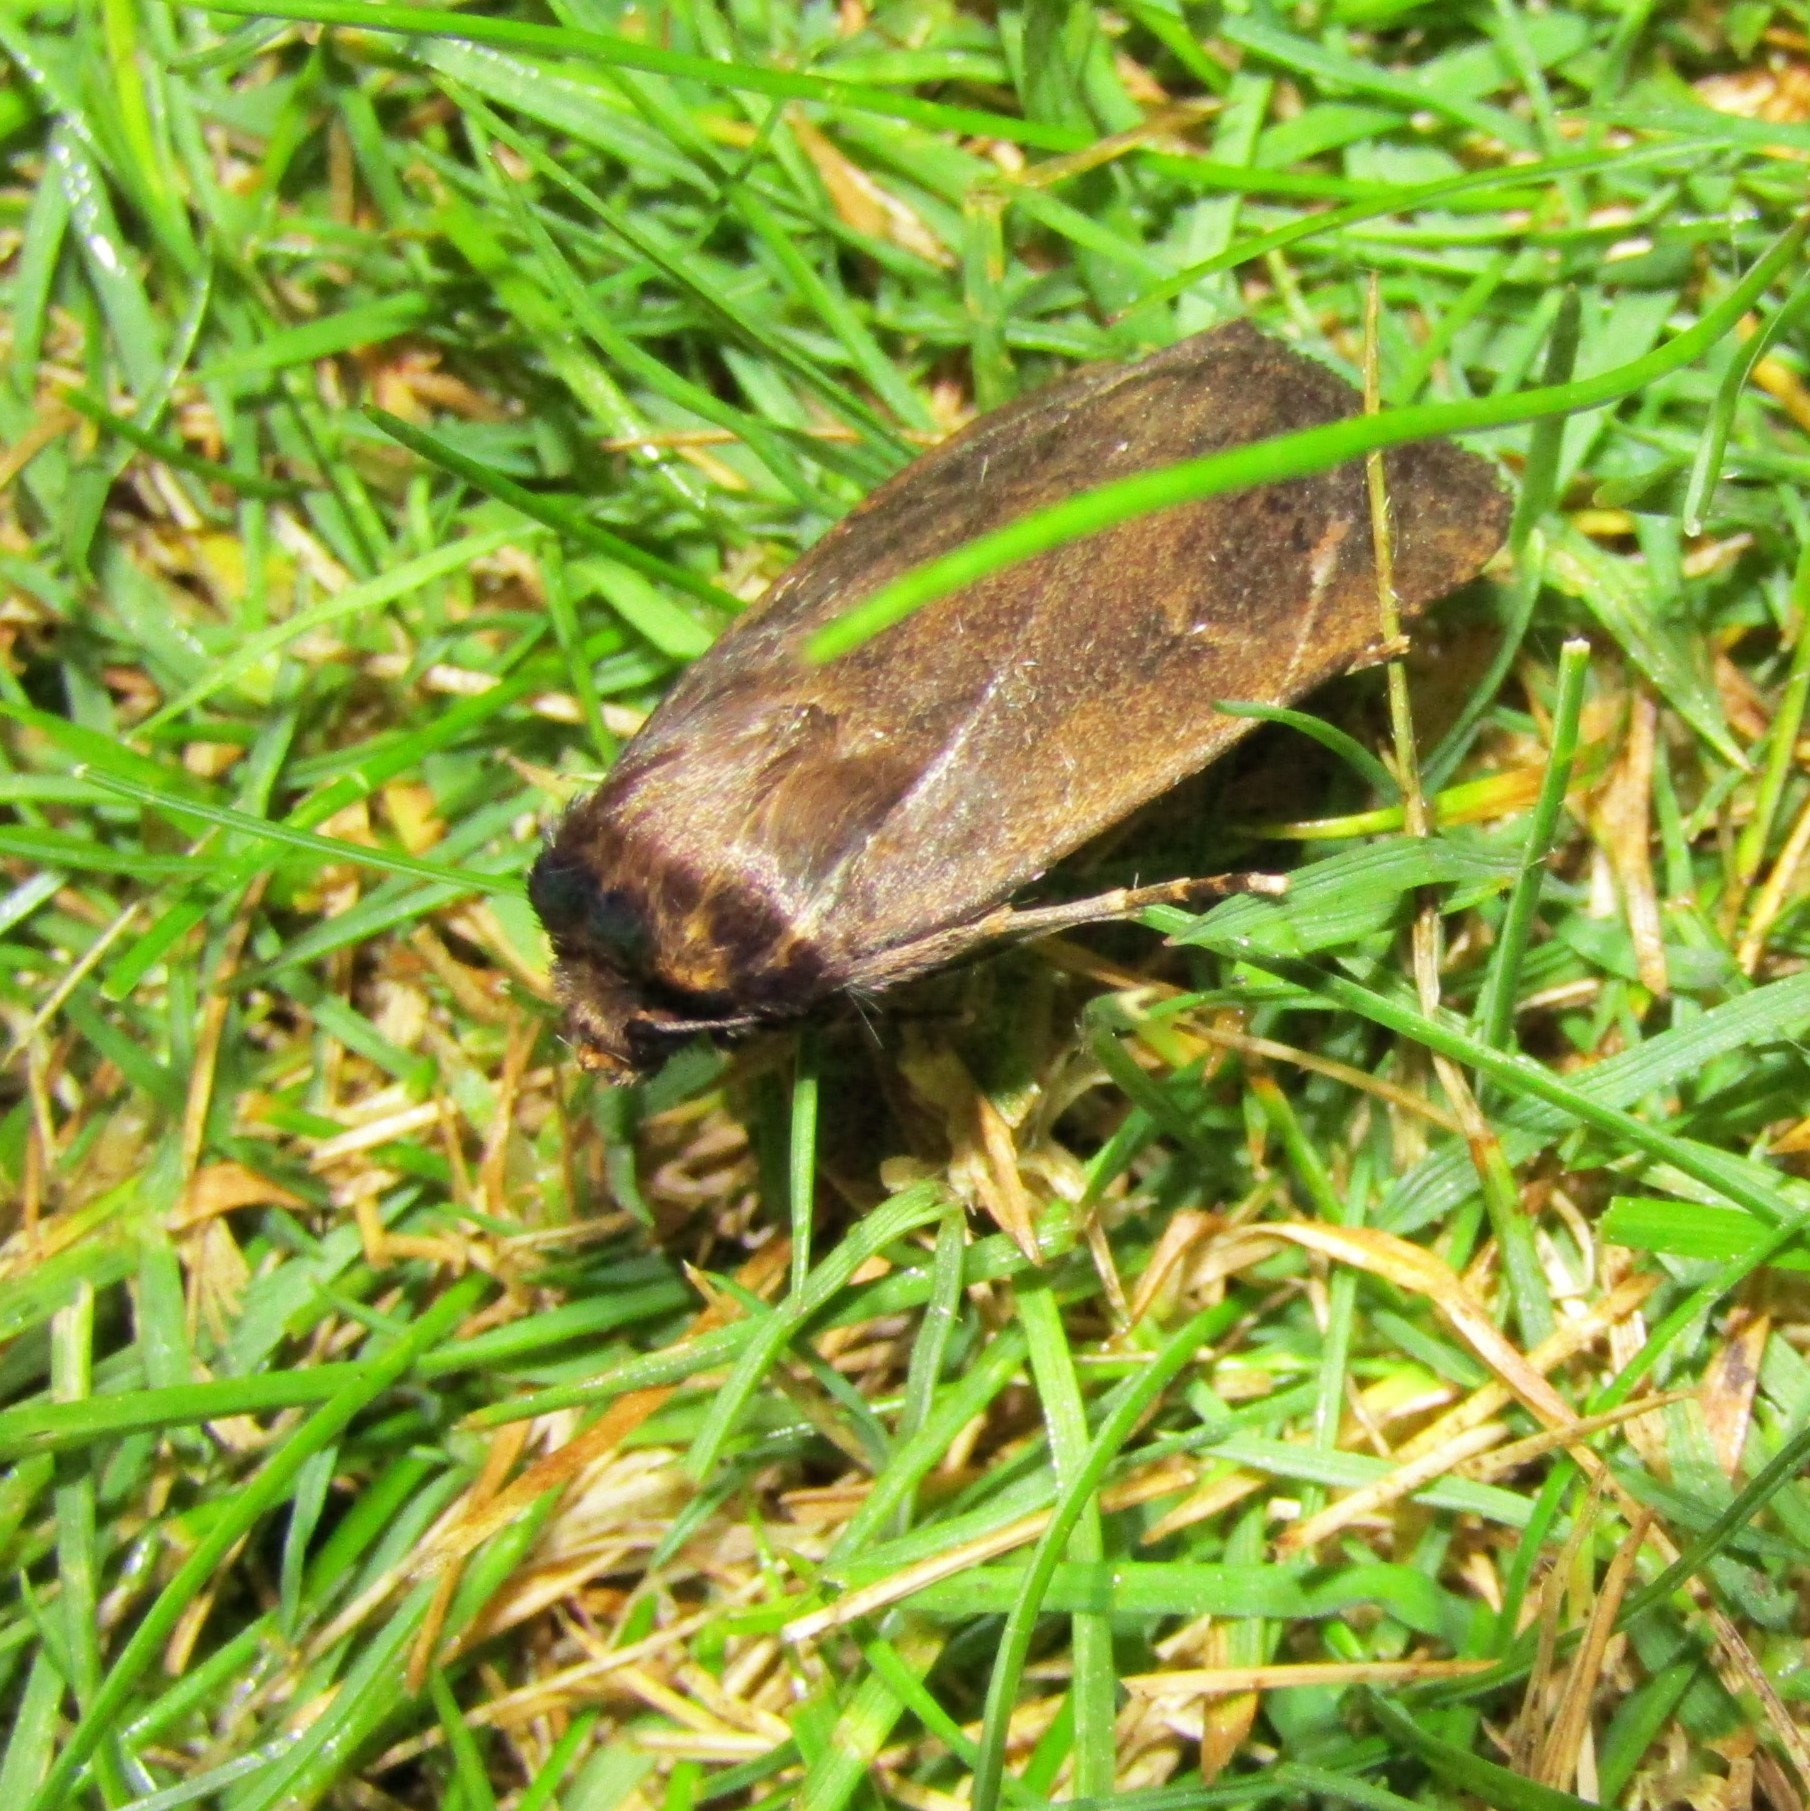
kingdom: Animalia
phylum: Arthropoda
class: Insecta
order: Lepidoptera
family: Noctuidae
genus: Bityla
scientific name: Bityla defigurata
